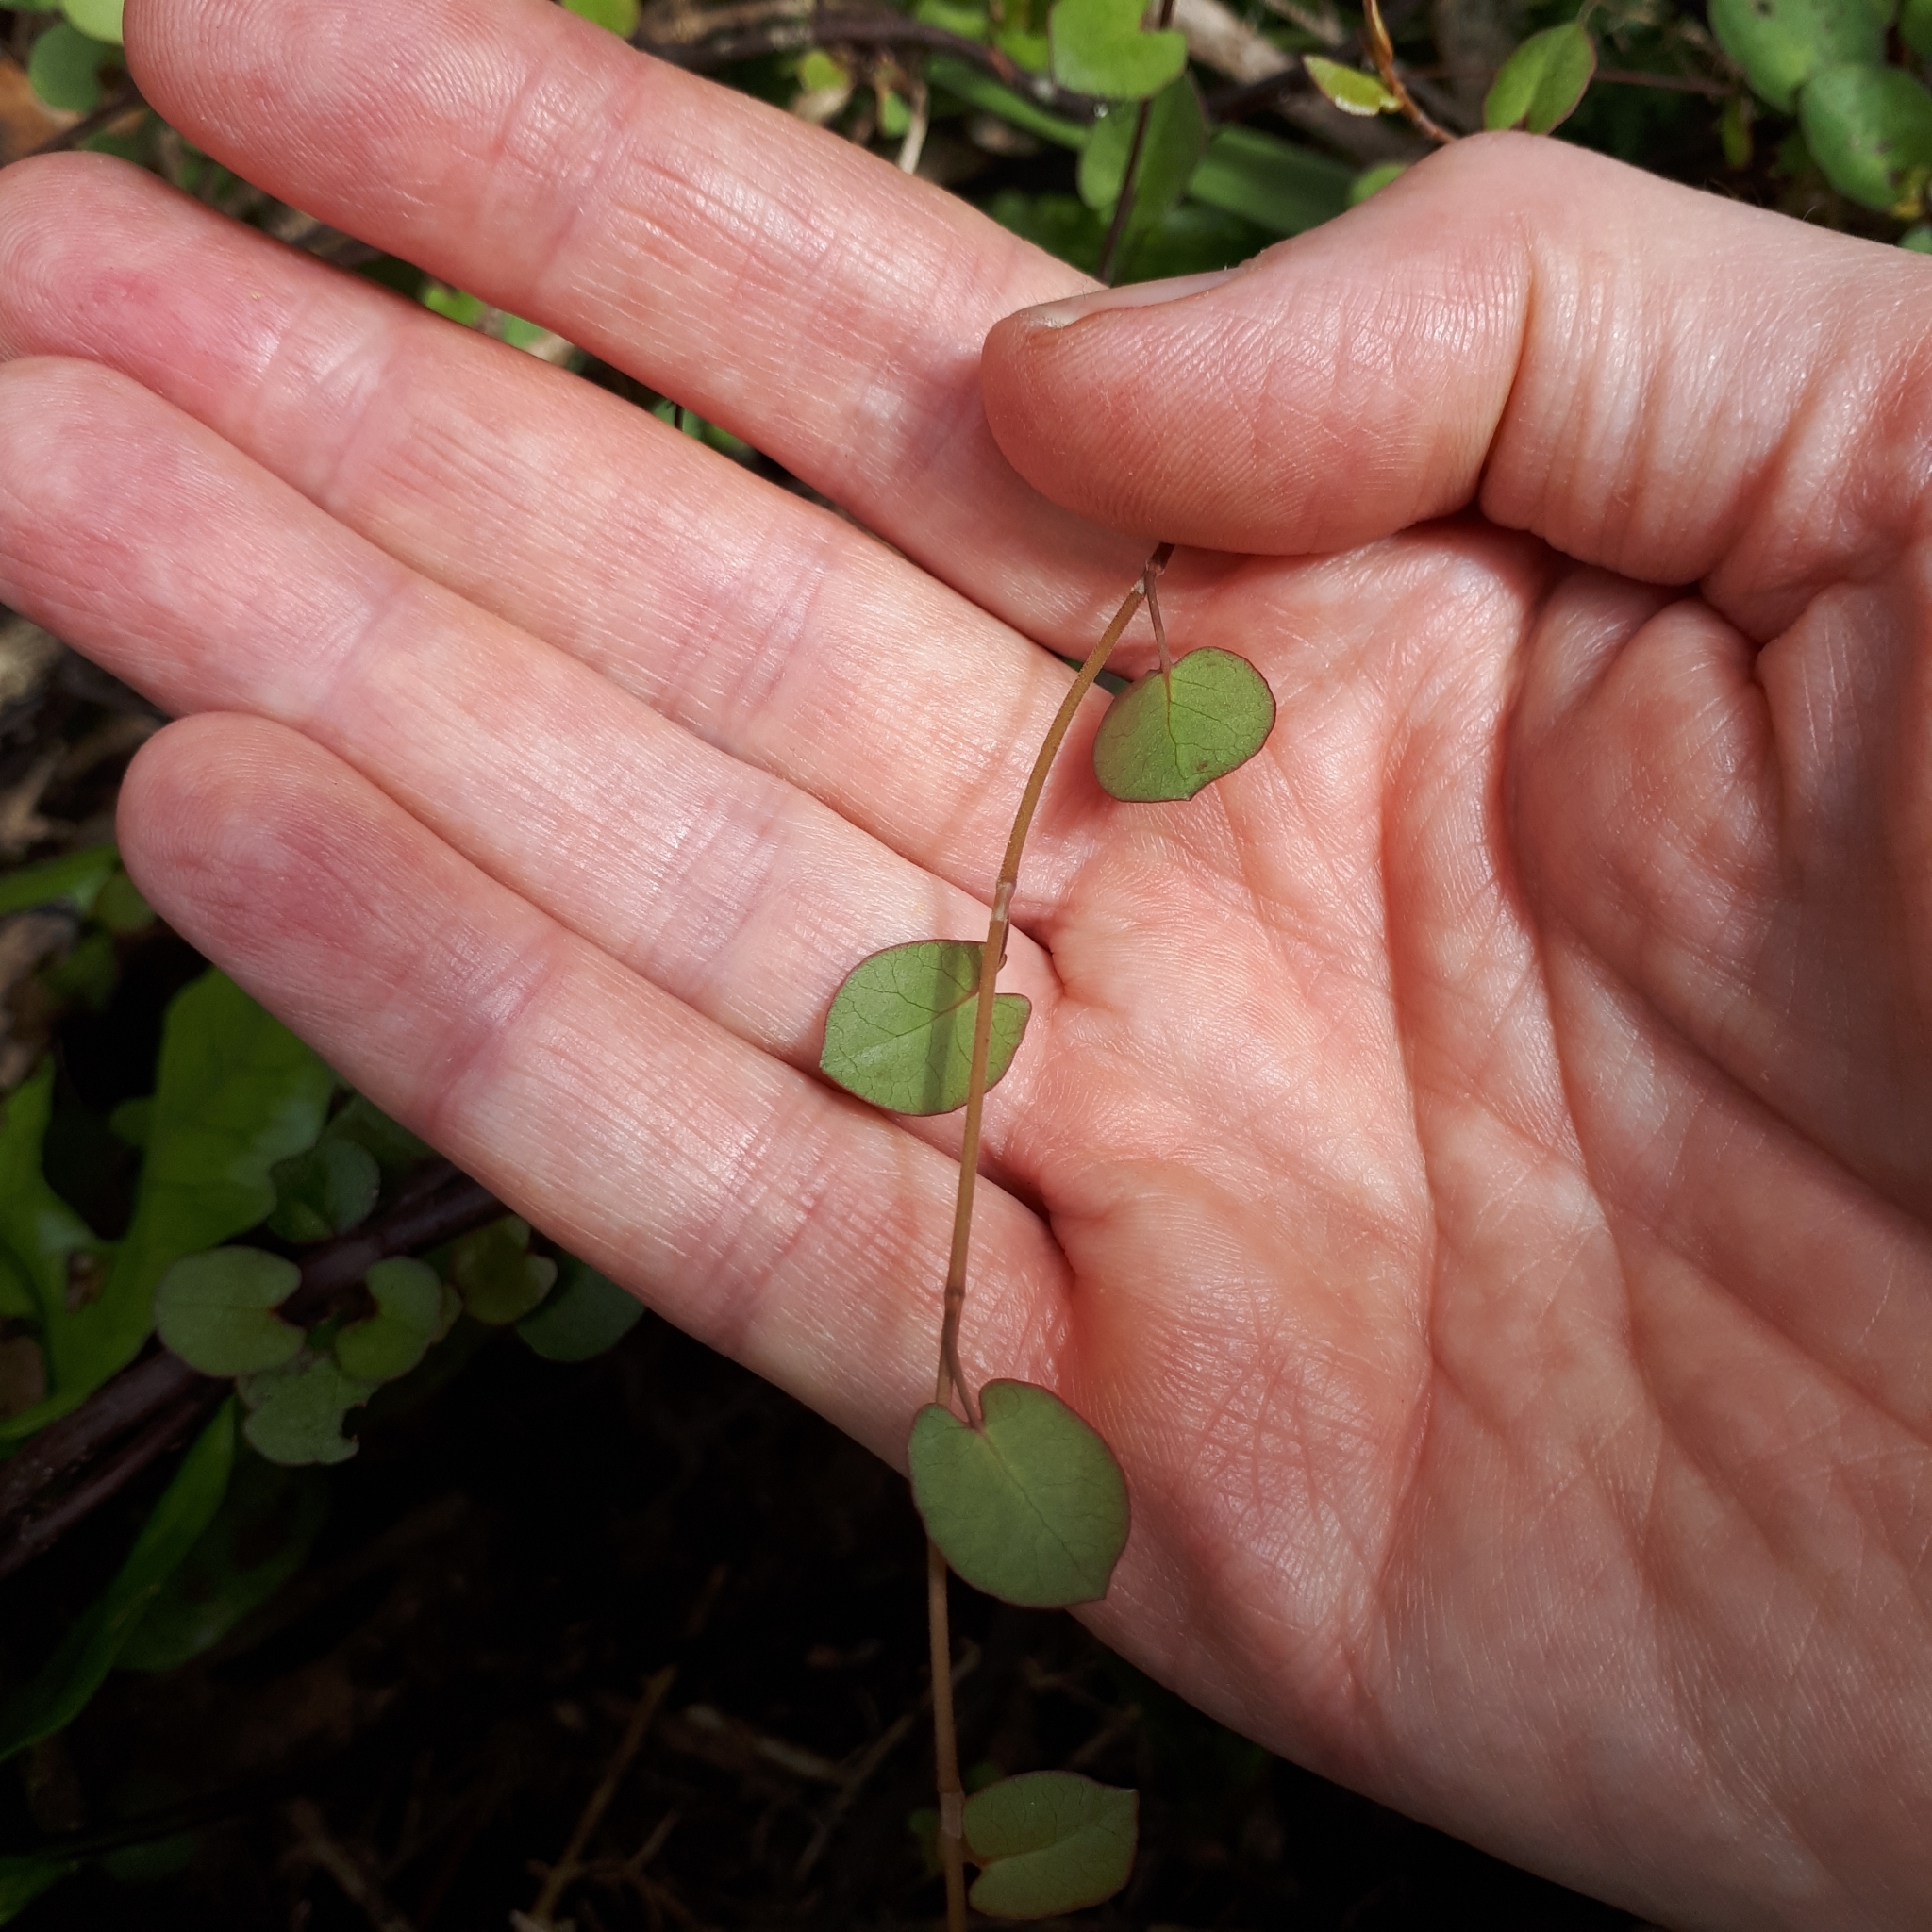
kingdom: Plantae
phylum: Tracheophyta
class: Magnoliopsida
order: Caryophyllales
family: Polygonaceae
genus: Muehlenbeckia
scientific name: Muehlenbeckia complexa
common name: Wireplant
